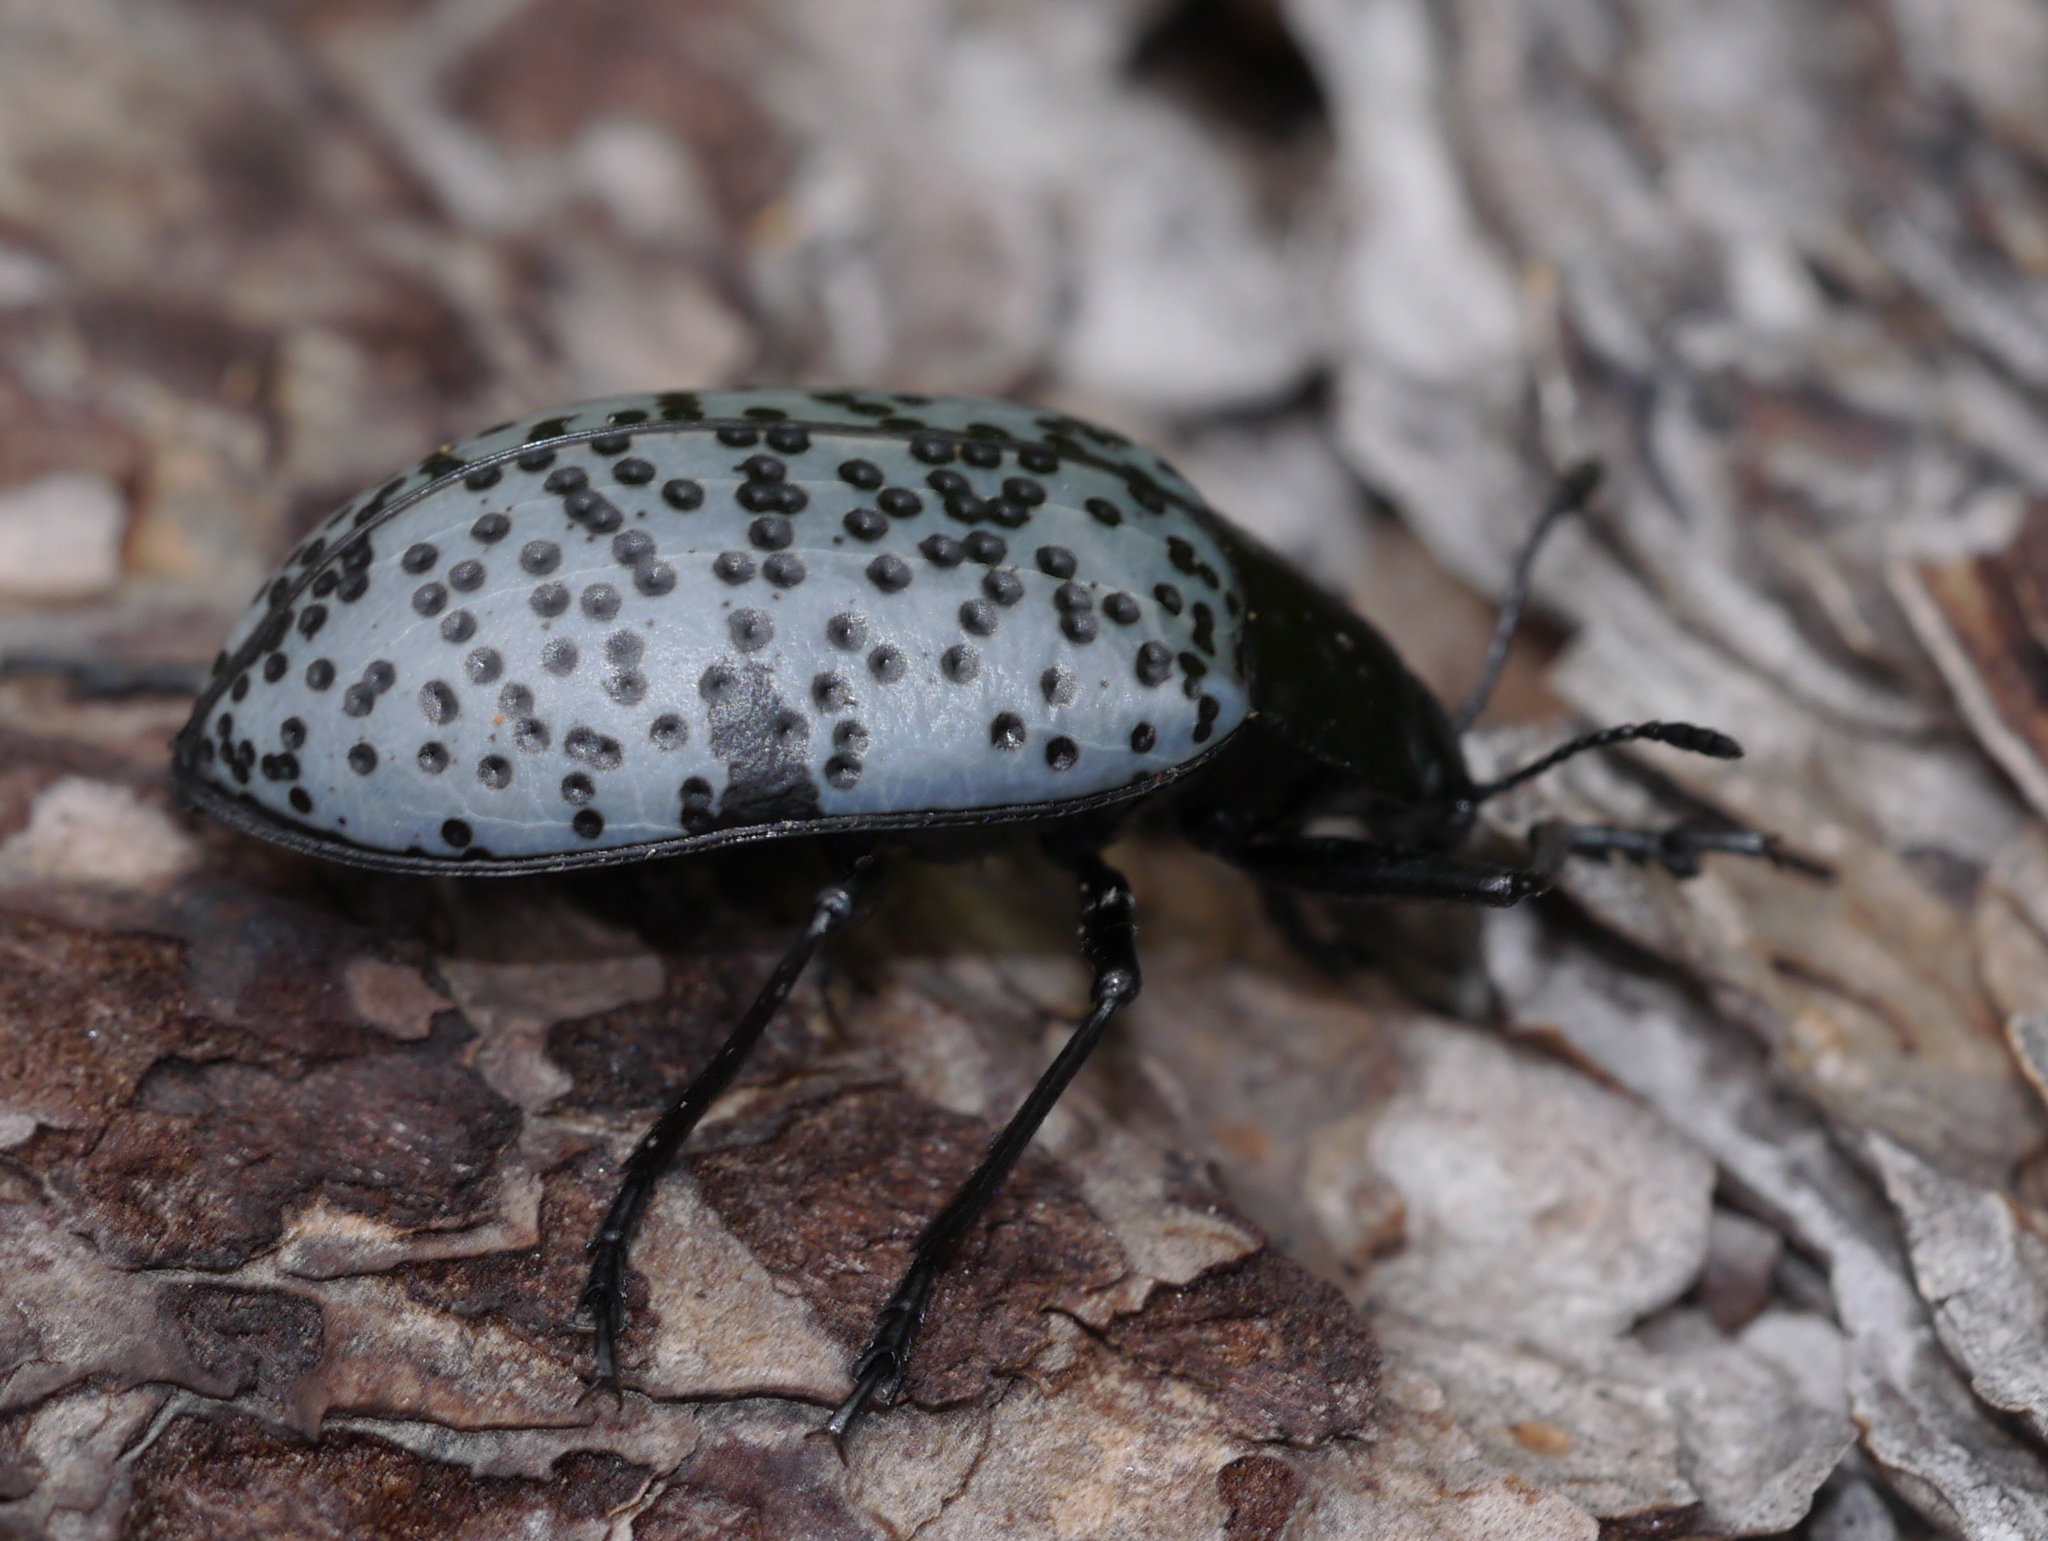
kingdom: Animalia
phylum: Arthropoda
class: Insecta
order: Coleoptera
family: Erotylidae
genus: Gibbifer
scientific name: Gibbifer californicus
